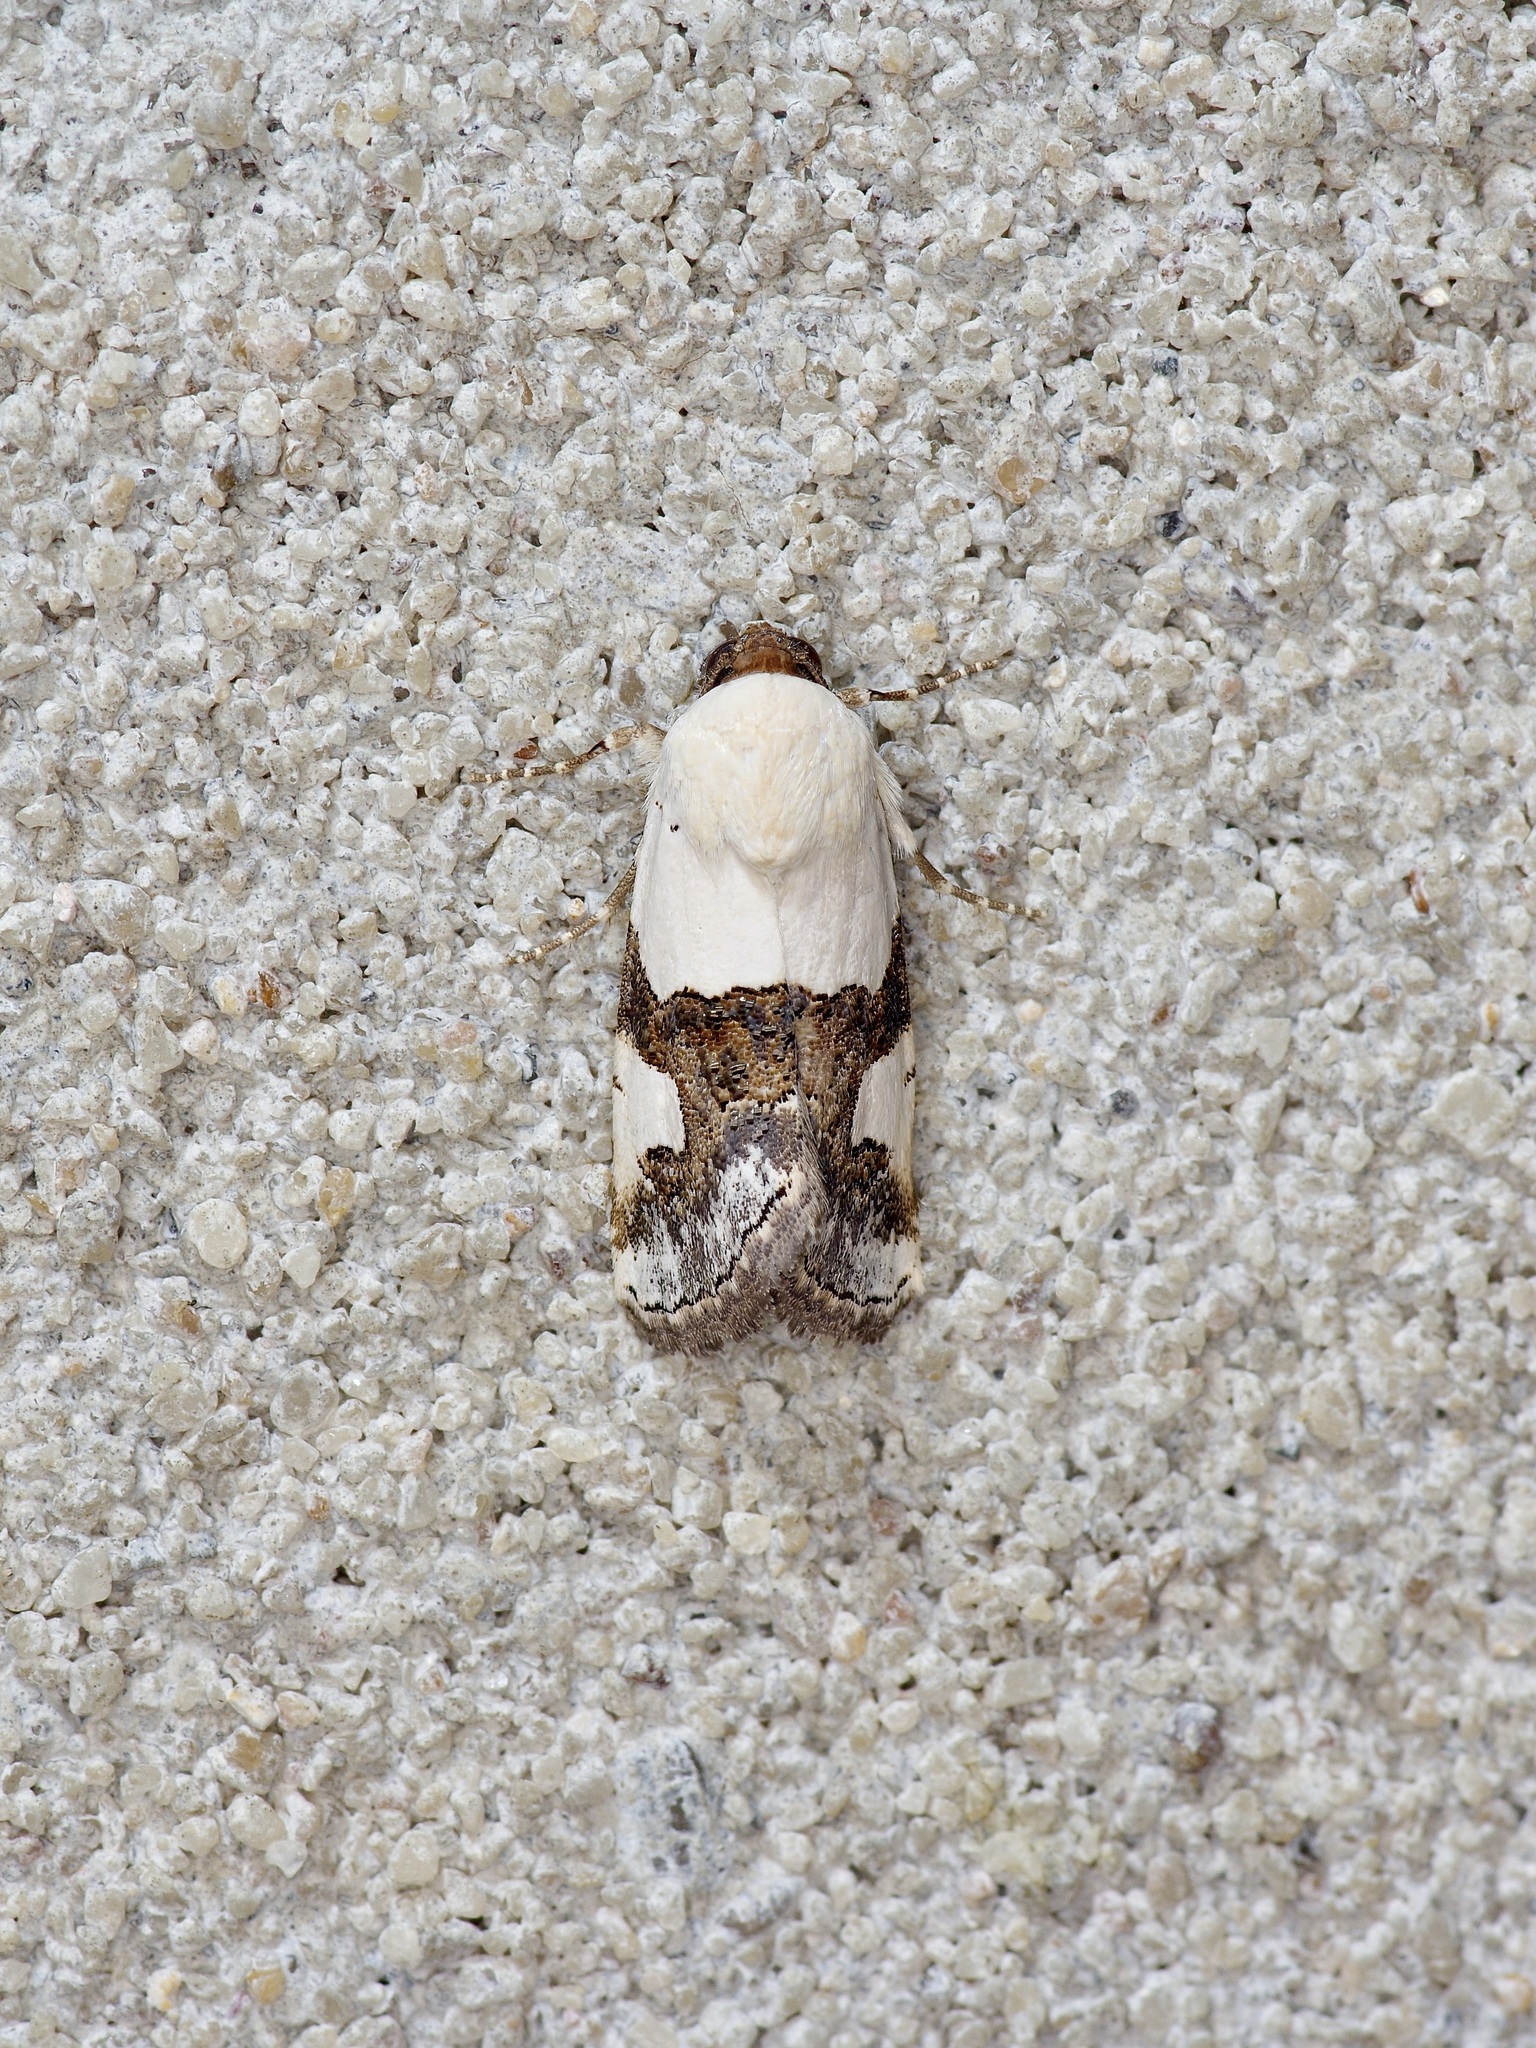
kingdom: Animalia
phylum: Arthropoda
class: Insecta
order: Lepidoptera
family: Noctuidae
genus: Sympistis
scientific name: Sympistis toddi
